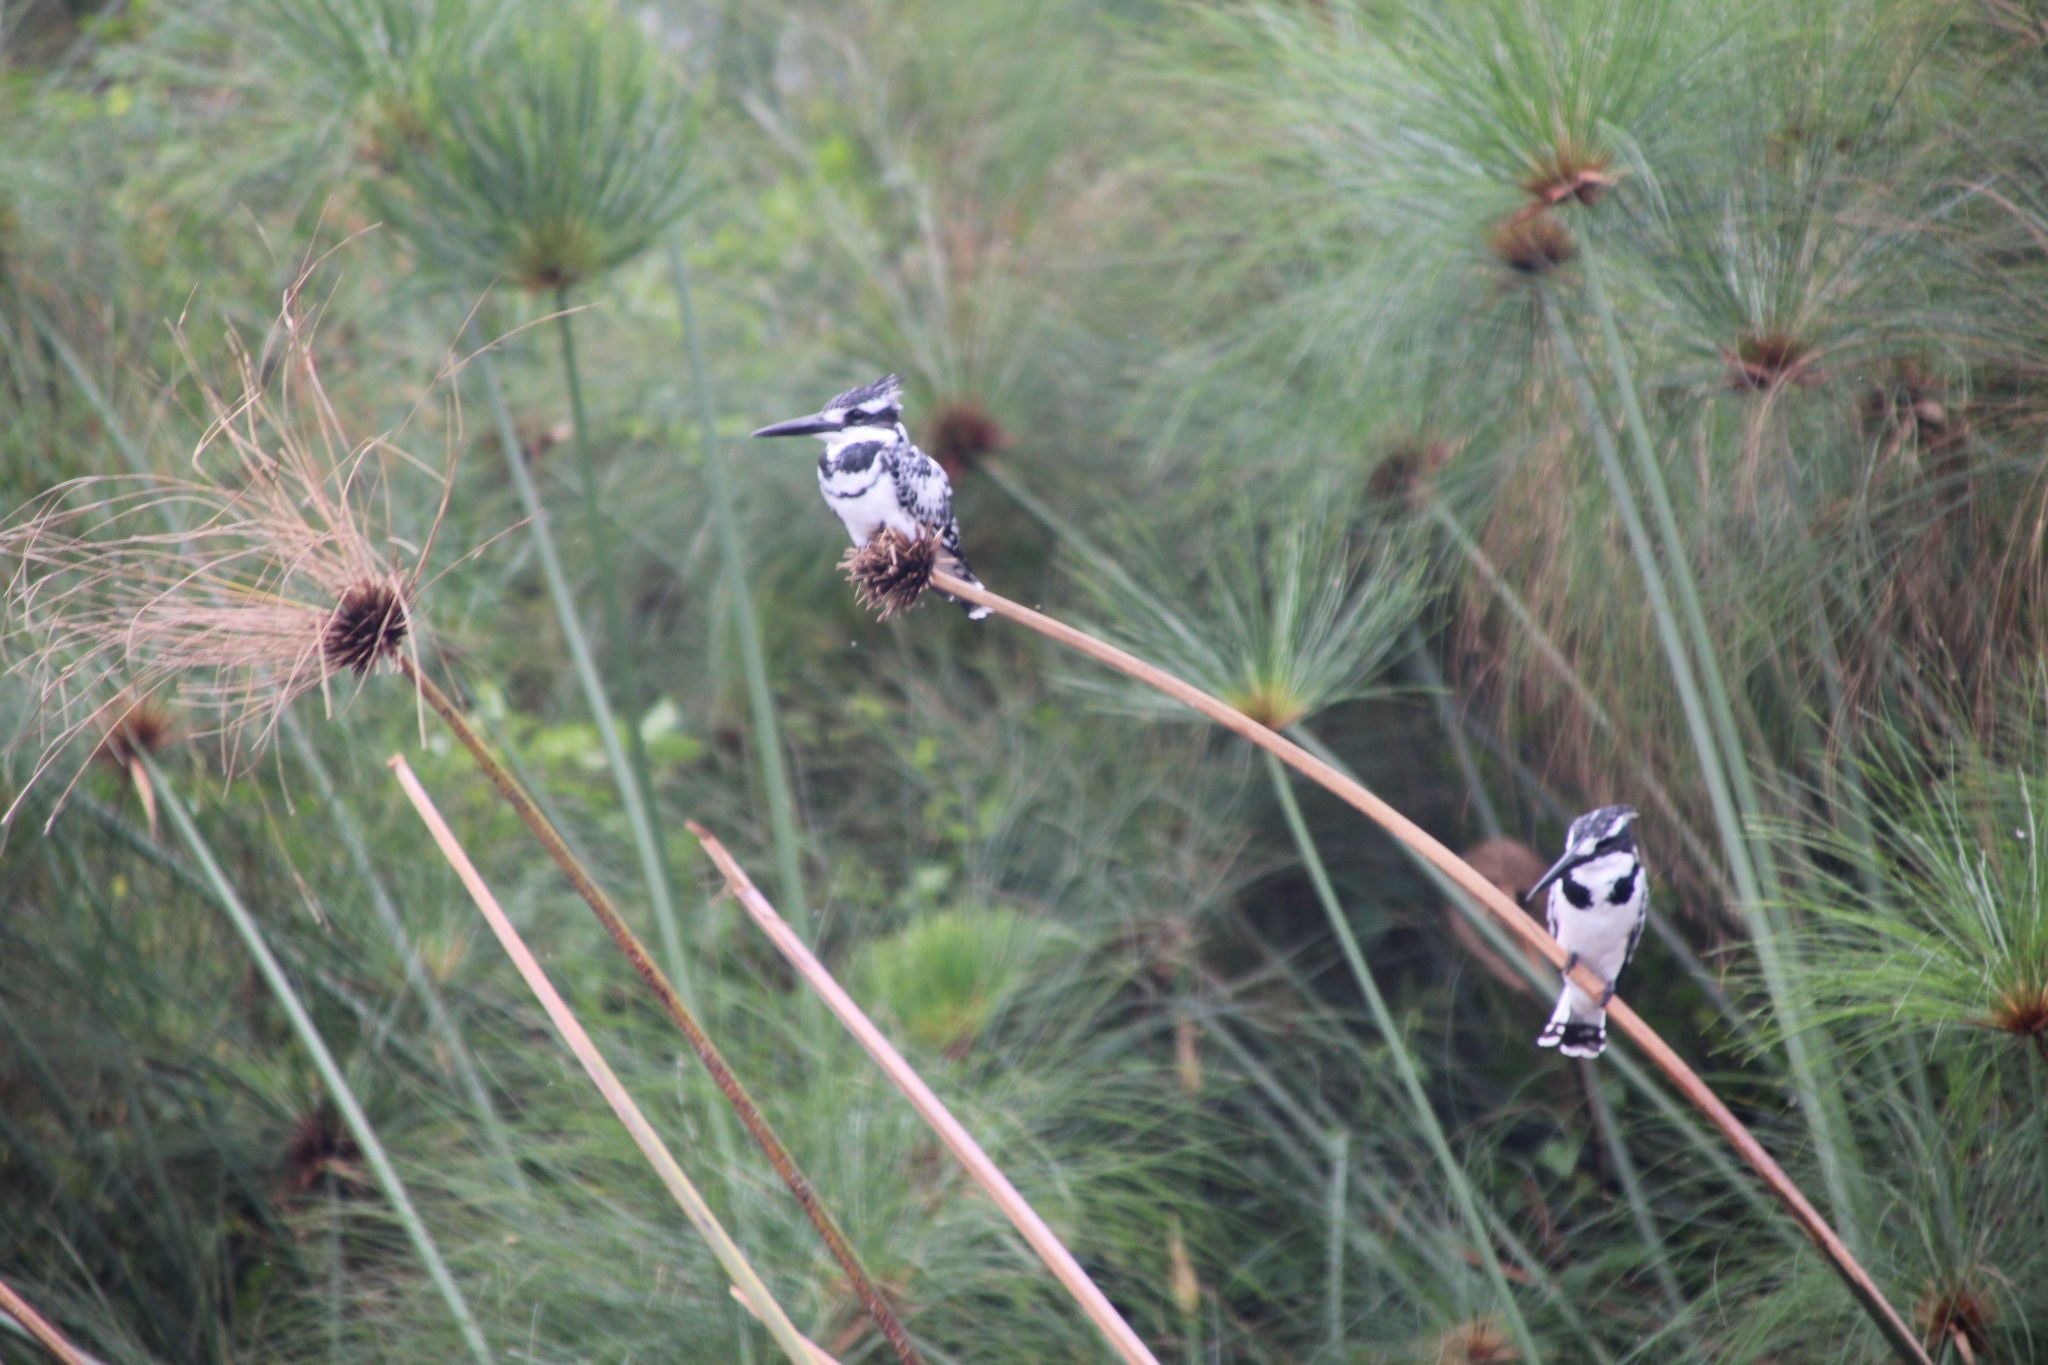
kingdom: Animalia
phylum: Chordata
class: Aves
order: Coraciiformes
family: Alcedinidae
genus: Ceryle
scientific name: Ceryle rudis
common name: Pied kingfisher
